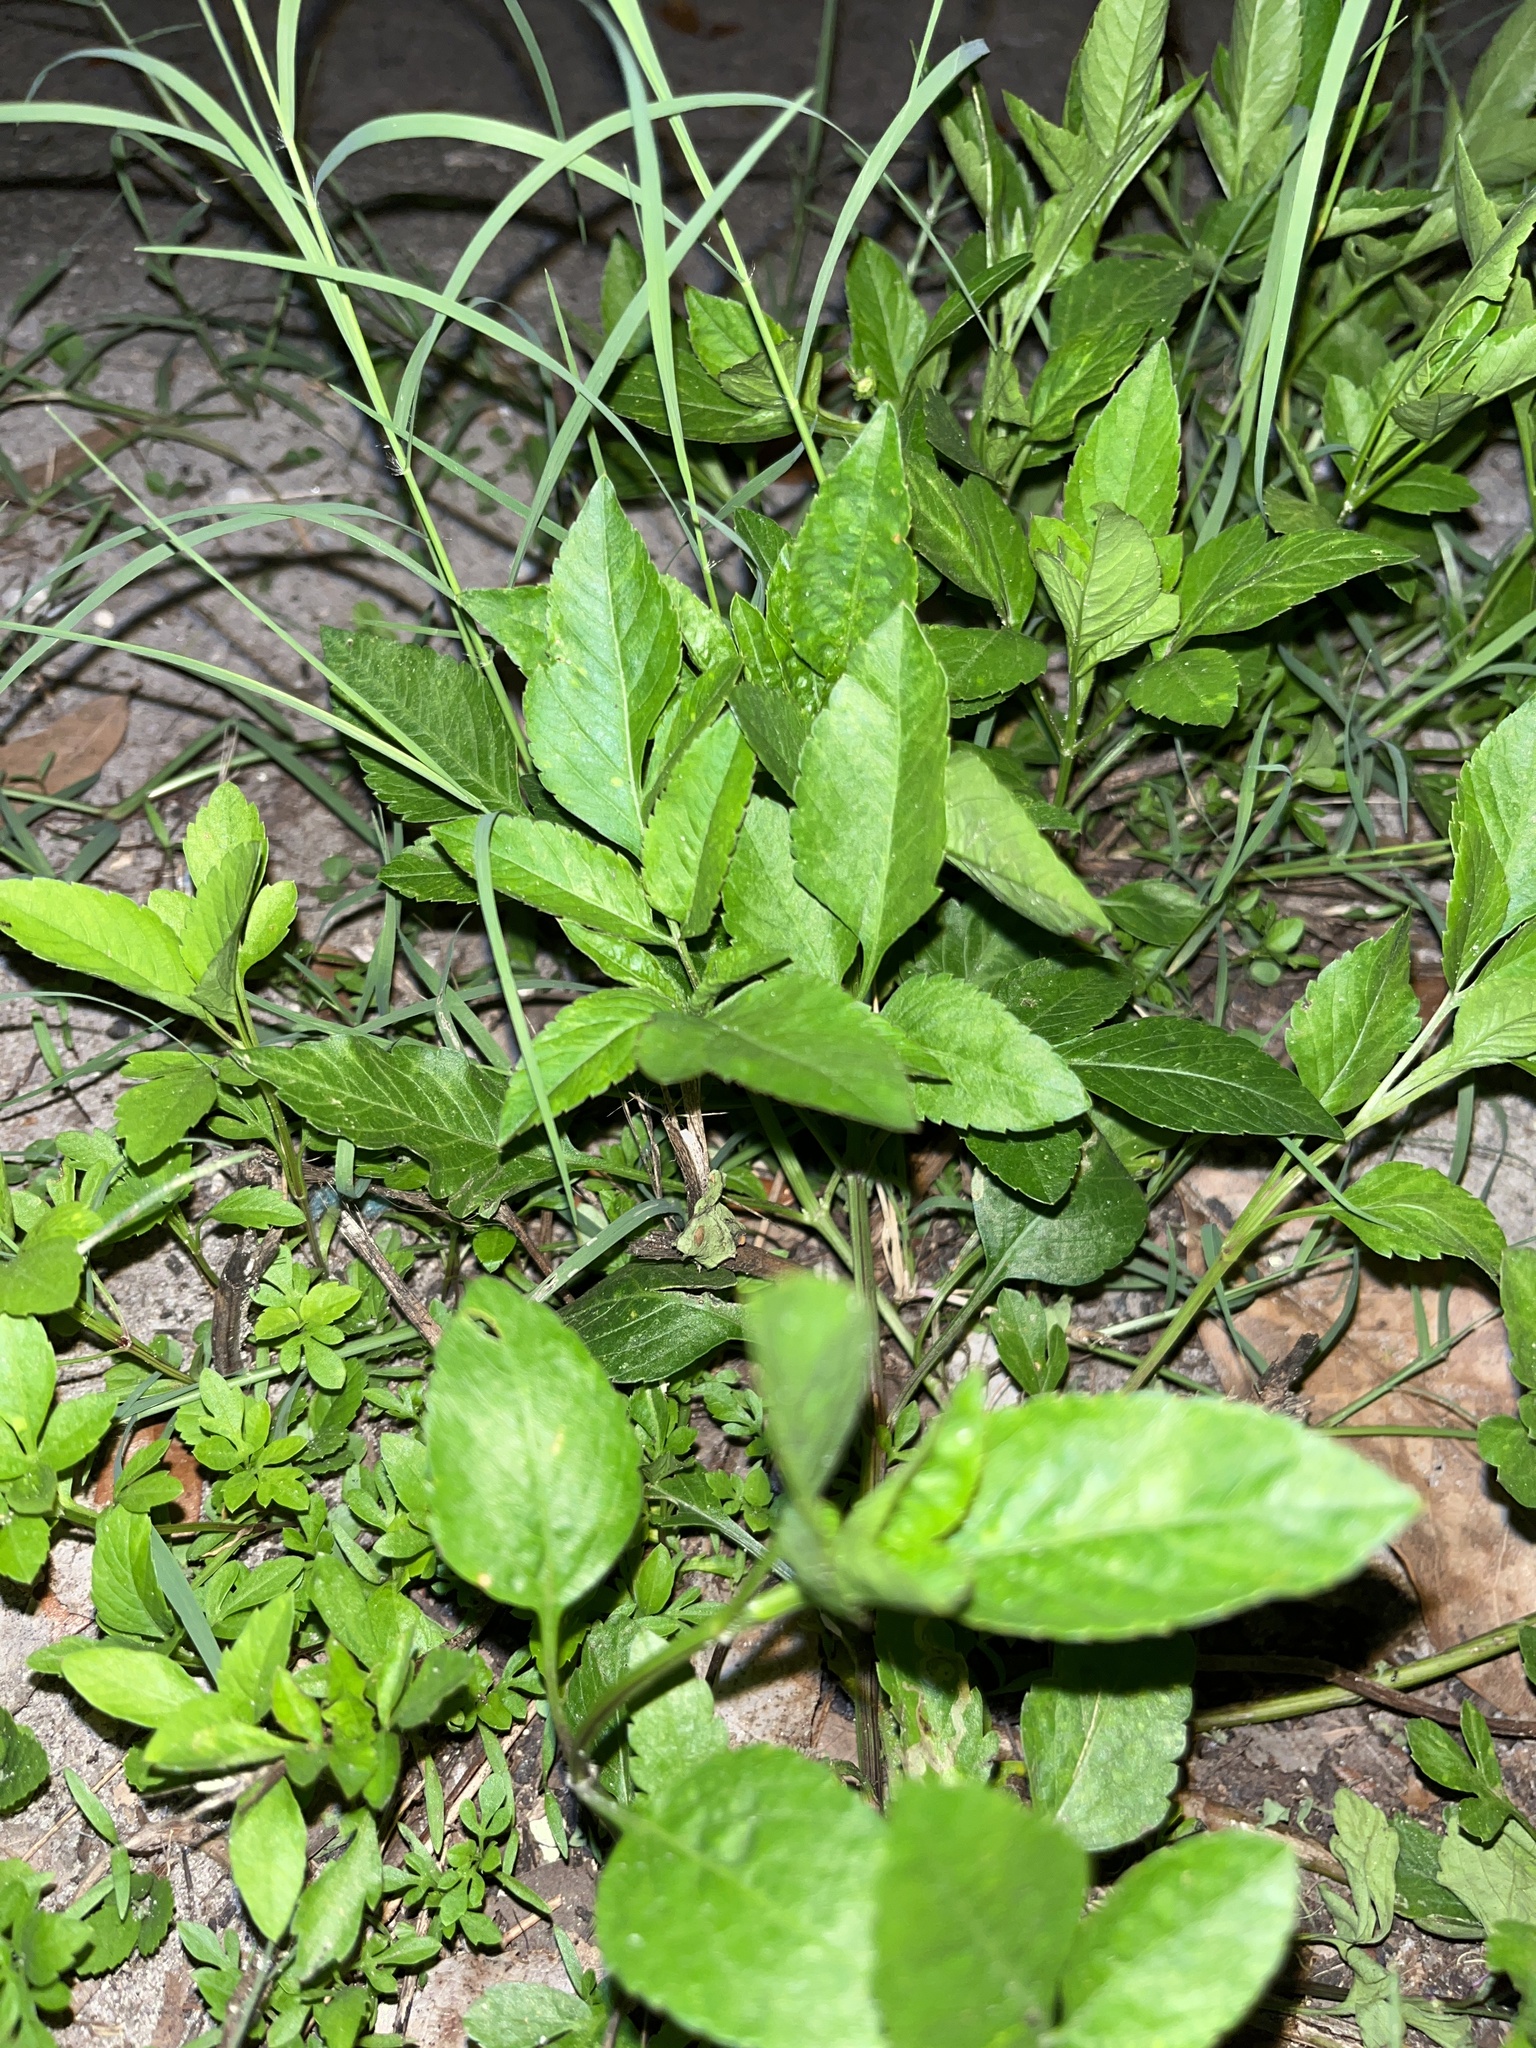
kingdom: Plantae
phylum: Tracheophyta
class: Magnoliopsida
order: Asterales
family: Asteraceae
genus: Bidens
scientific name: Bidens alba
